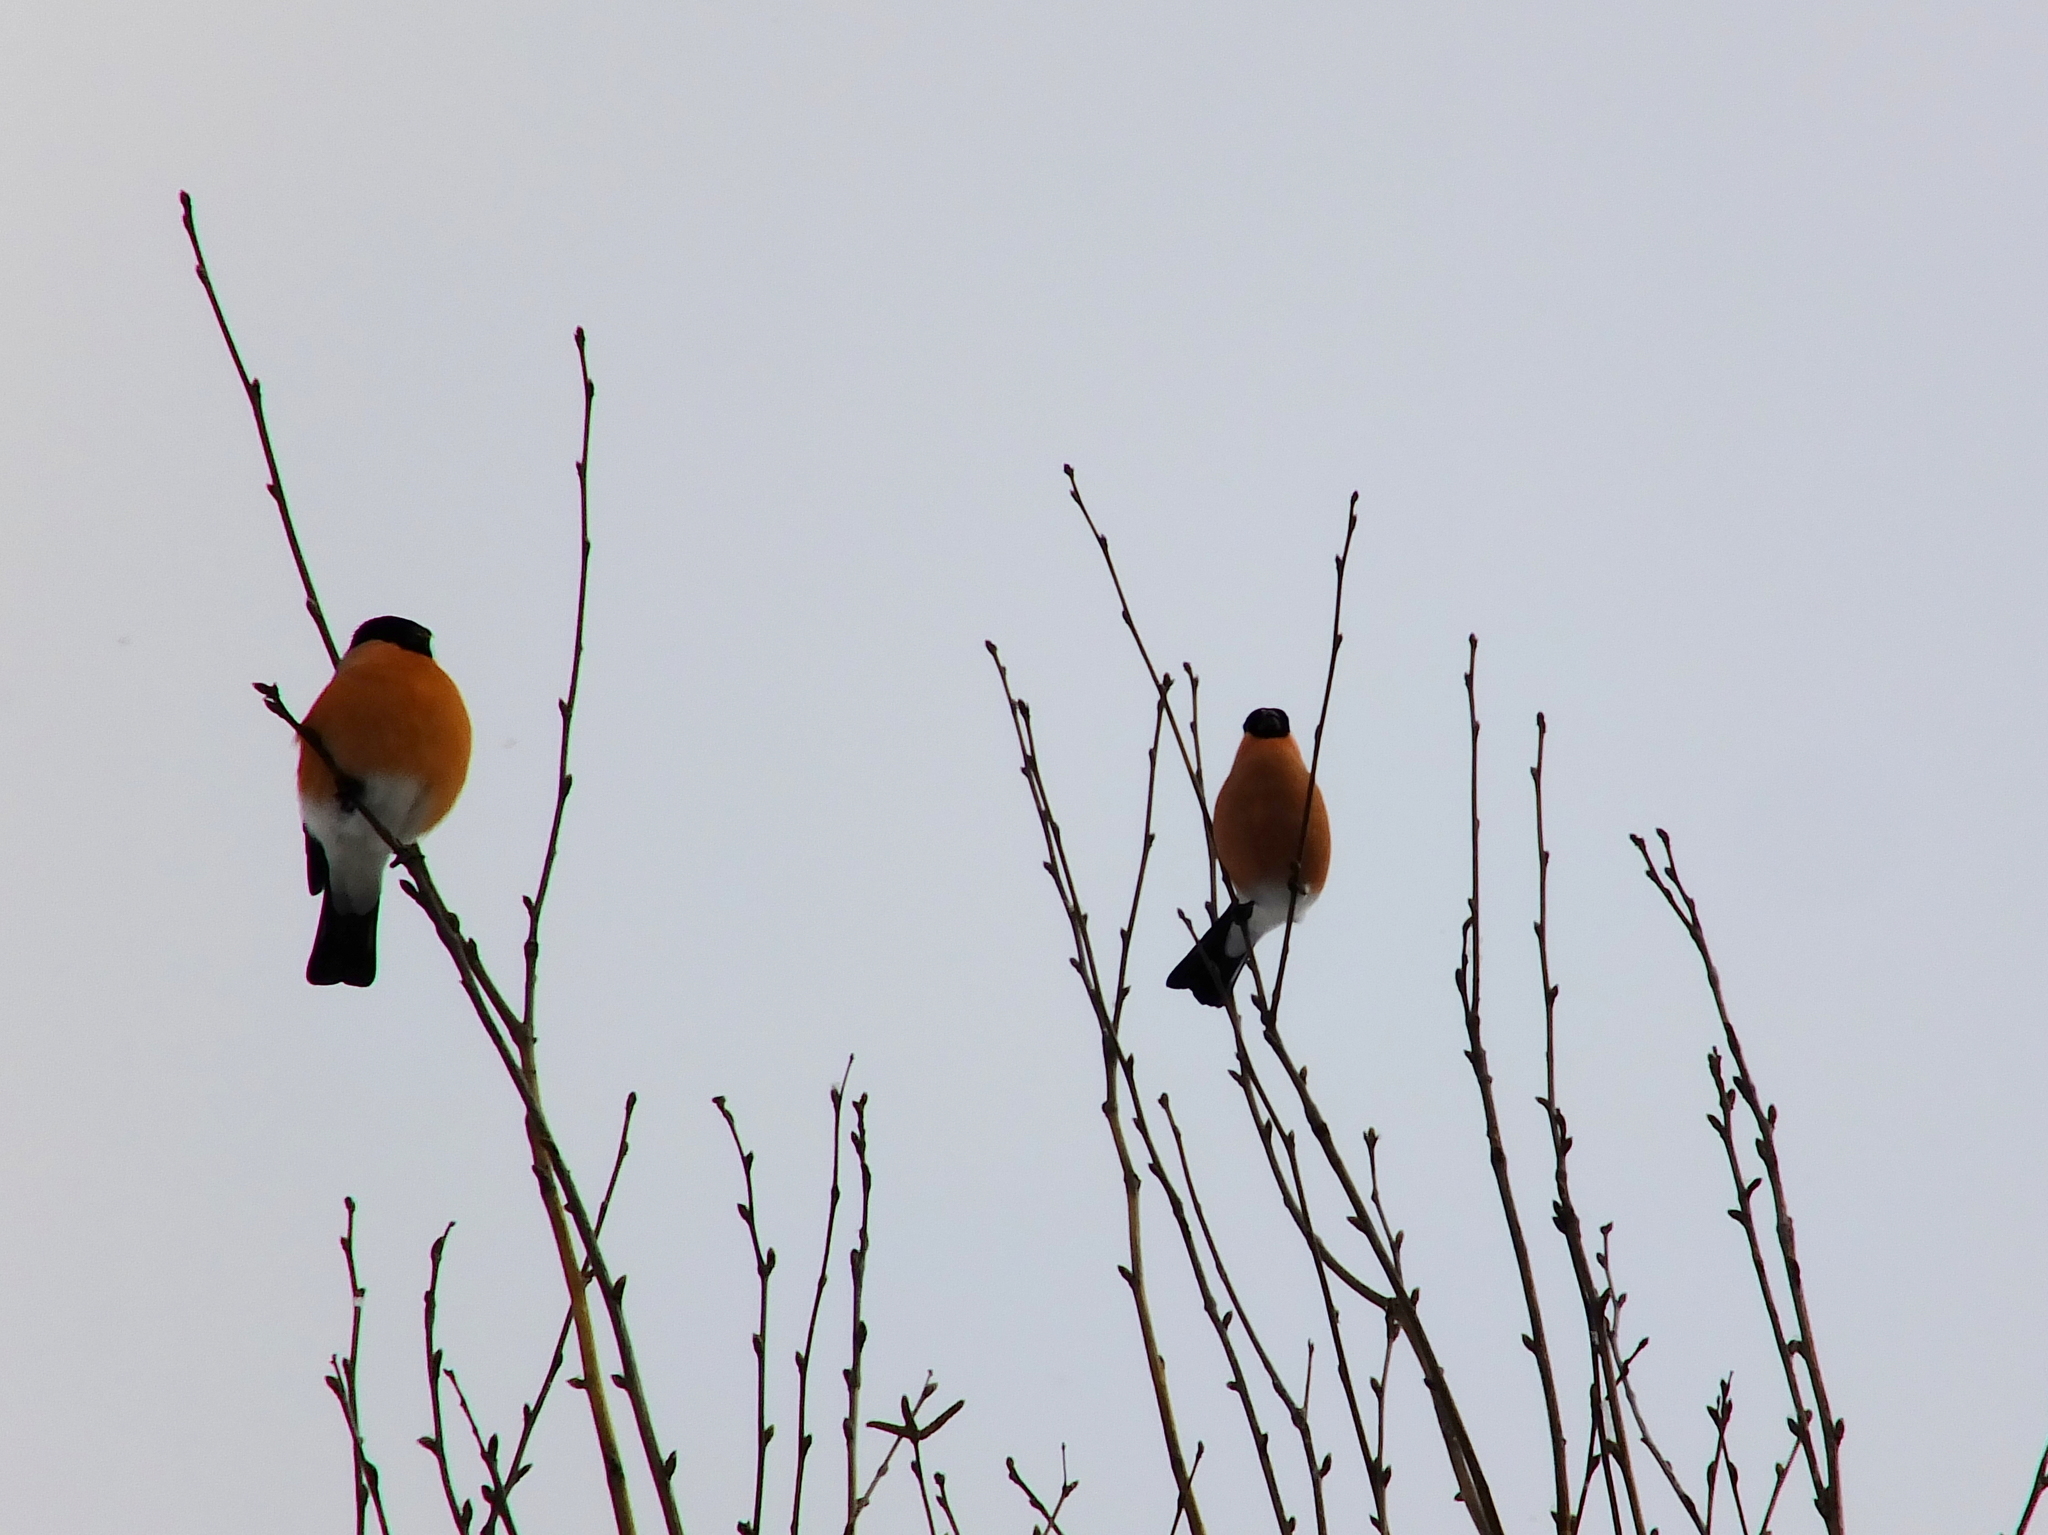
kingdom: Animalia
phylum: Chordata
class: Aves
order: Passeriformes
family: Fringillidae
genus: Pyrrhula
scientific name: Pyrrhula pyrrhula
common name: Eurasian bullfinch
